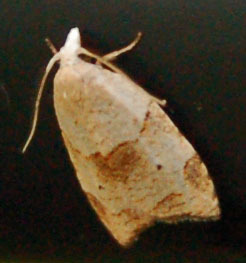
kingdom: Animalia
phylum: Arthropoda
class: Insecta
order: Lepidoptera
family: Tortricidae
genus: Coelostathma
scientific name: Coelostathma discopunctana
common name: Batman moth
